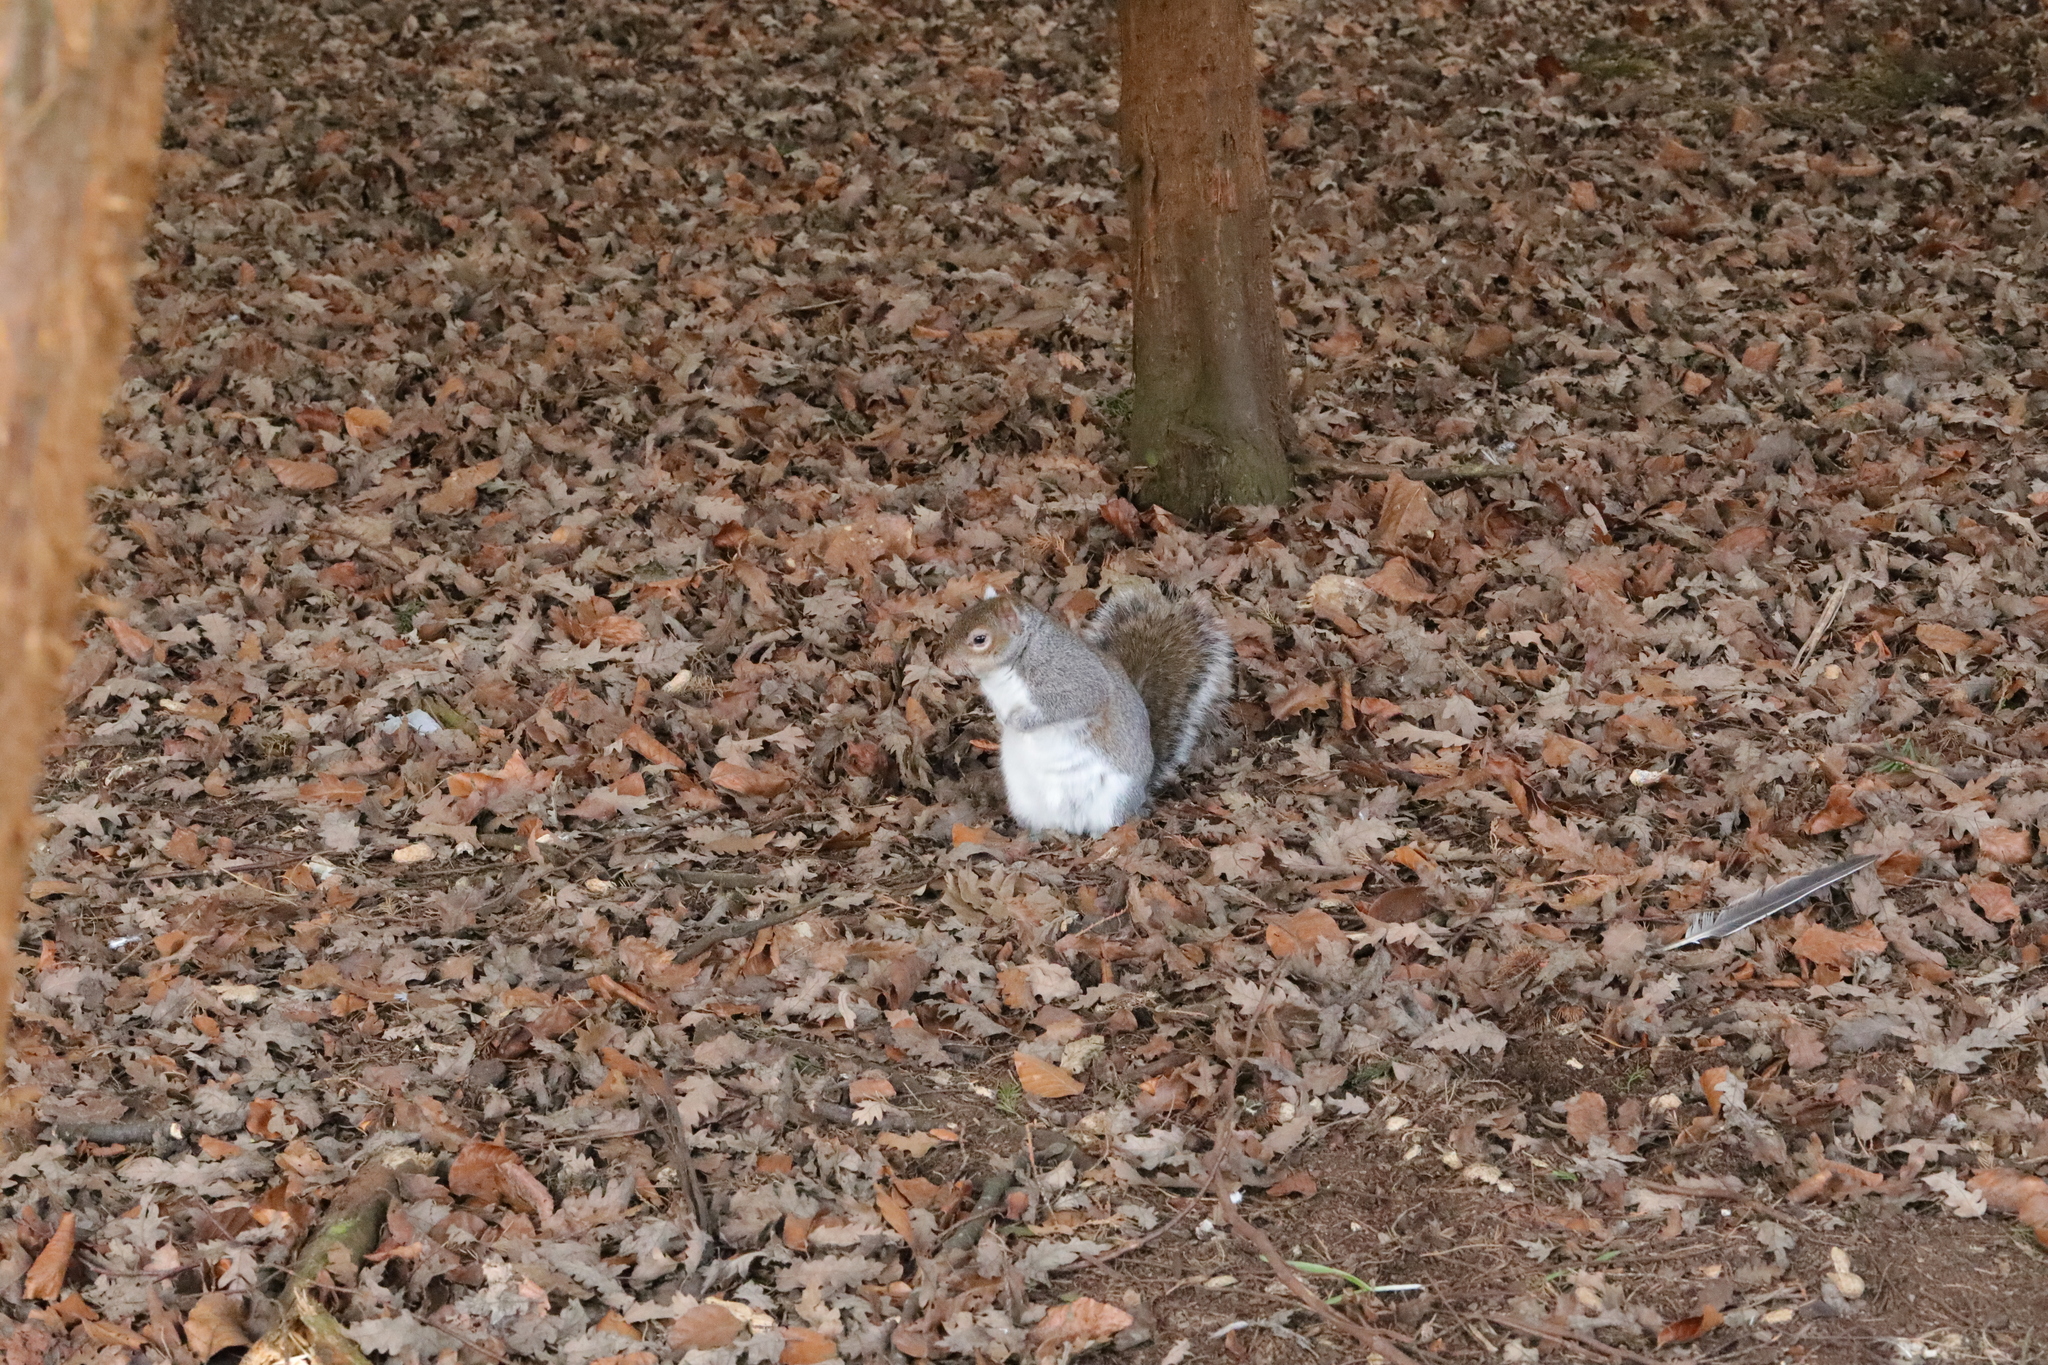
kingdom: Animalia
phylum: Chordata
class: Mammalia
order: Rodentia
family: Sciuridae
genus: Sciurus
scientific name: Sciurus carolinensis
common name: Eastern gray squirrel
